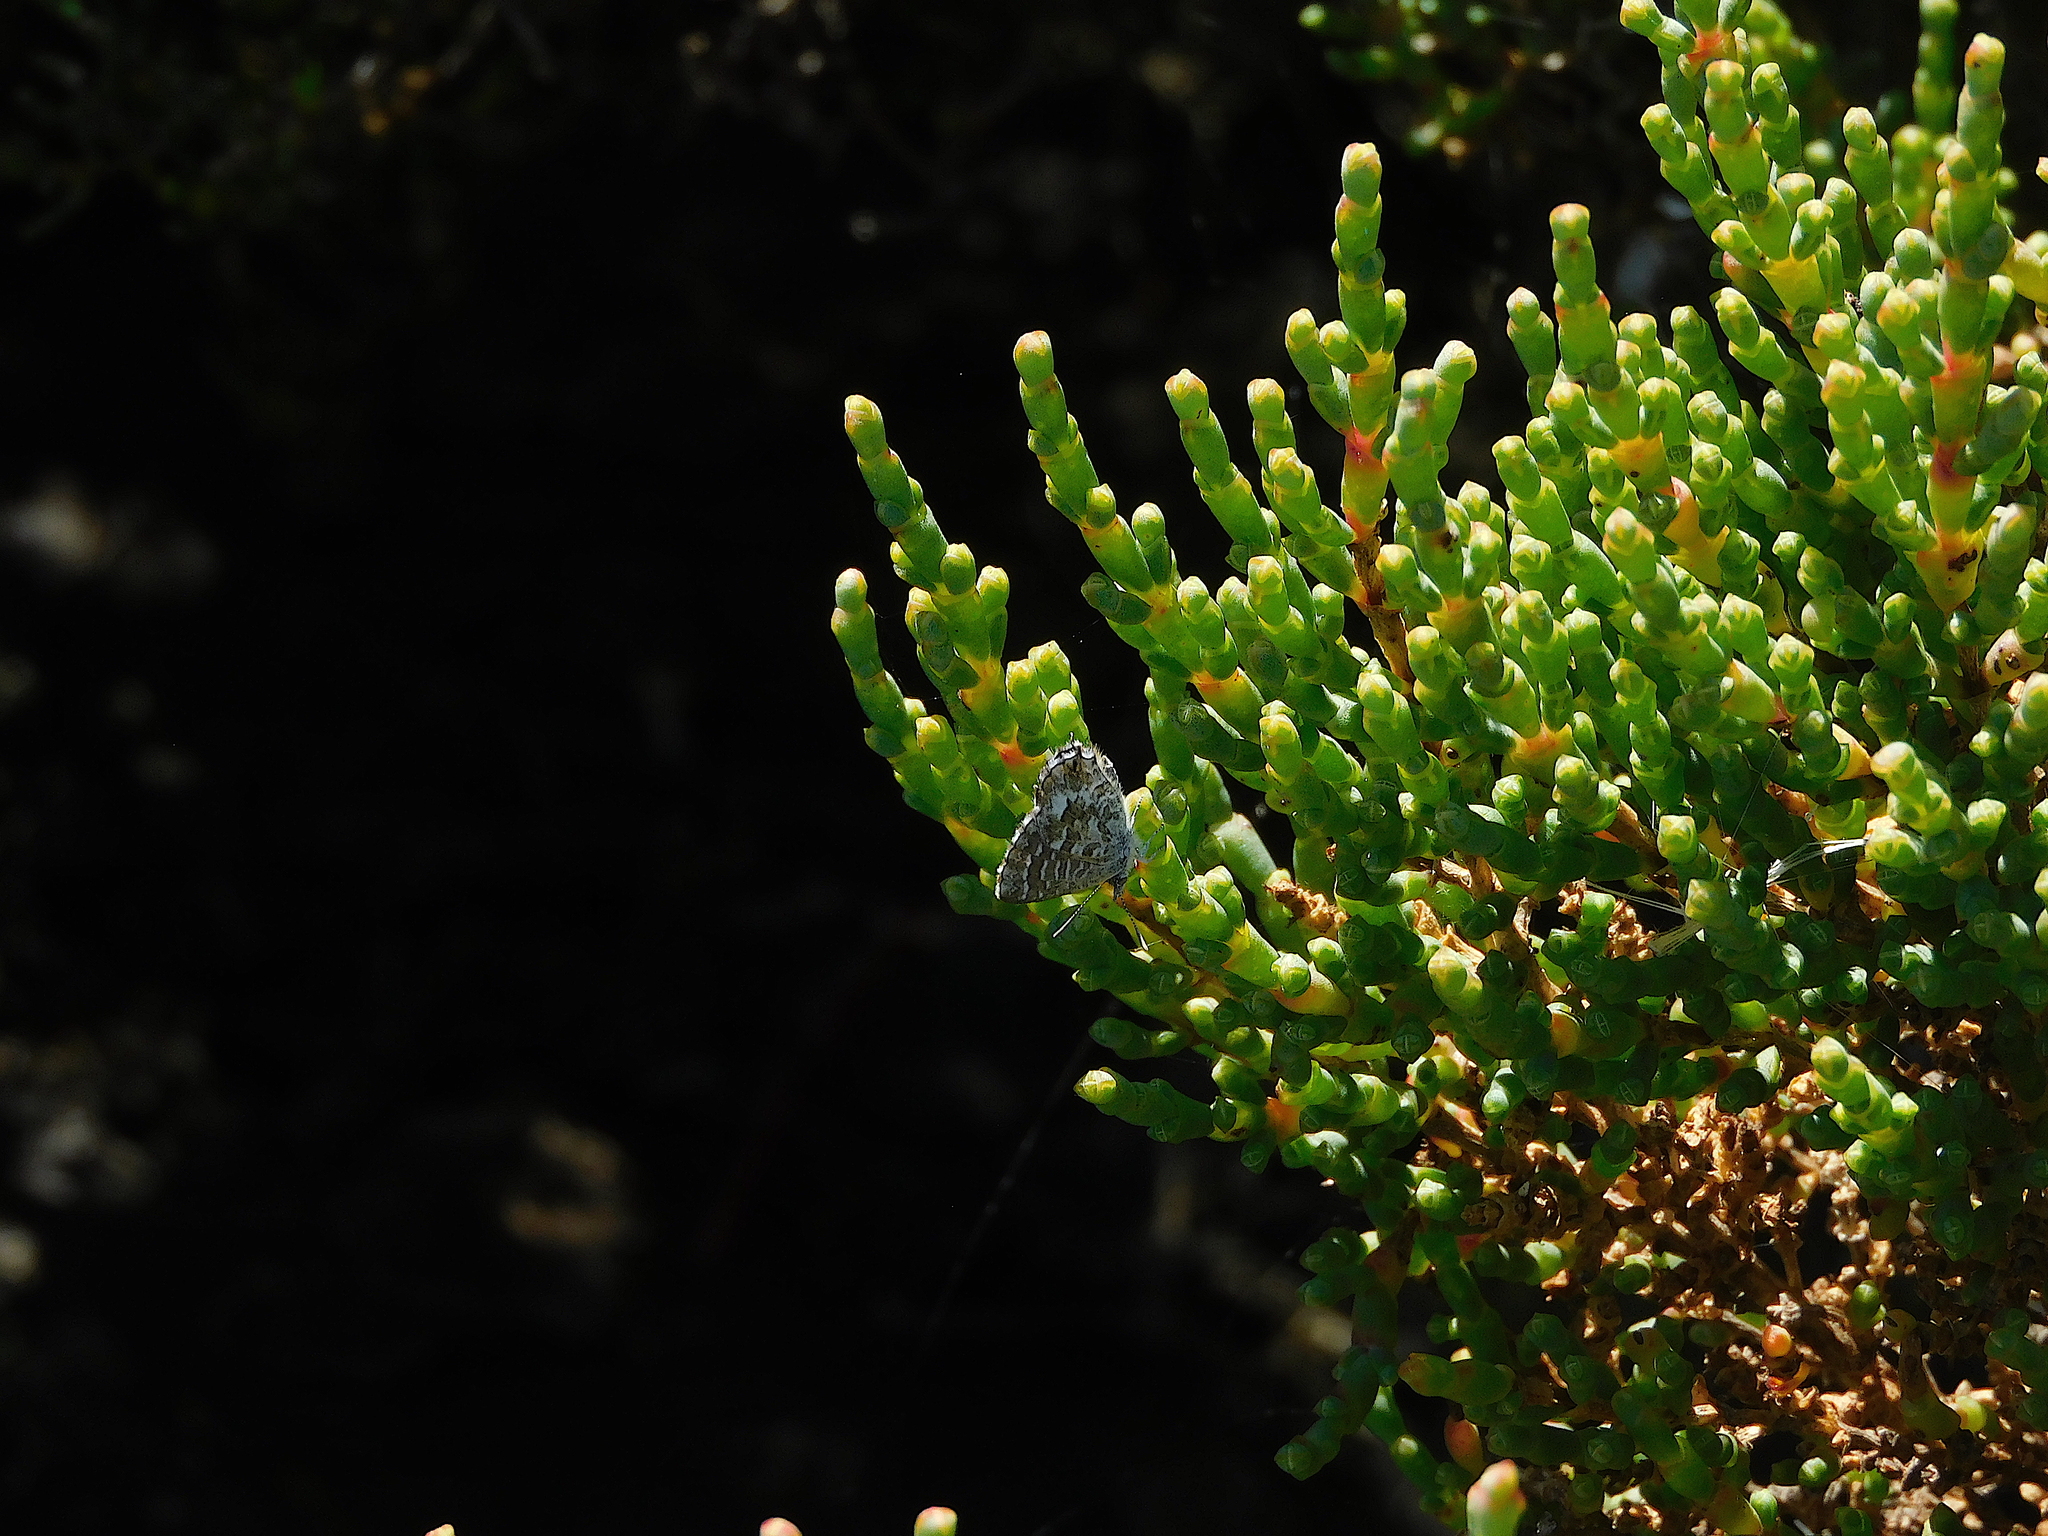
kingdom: Animalia
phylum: Arthropoda
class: Insecta
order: Lepidoptera
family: Lycaenidae
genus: Theclinesthes
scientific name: Theclinesthes serpentata
